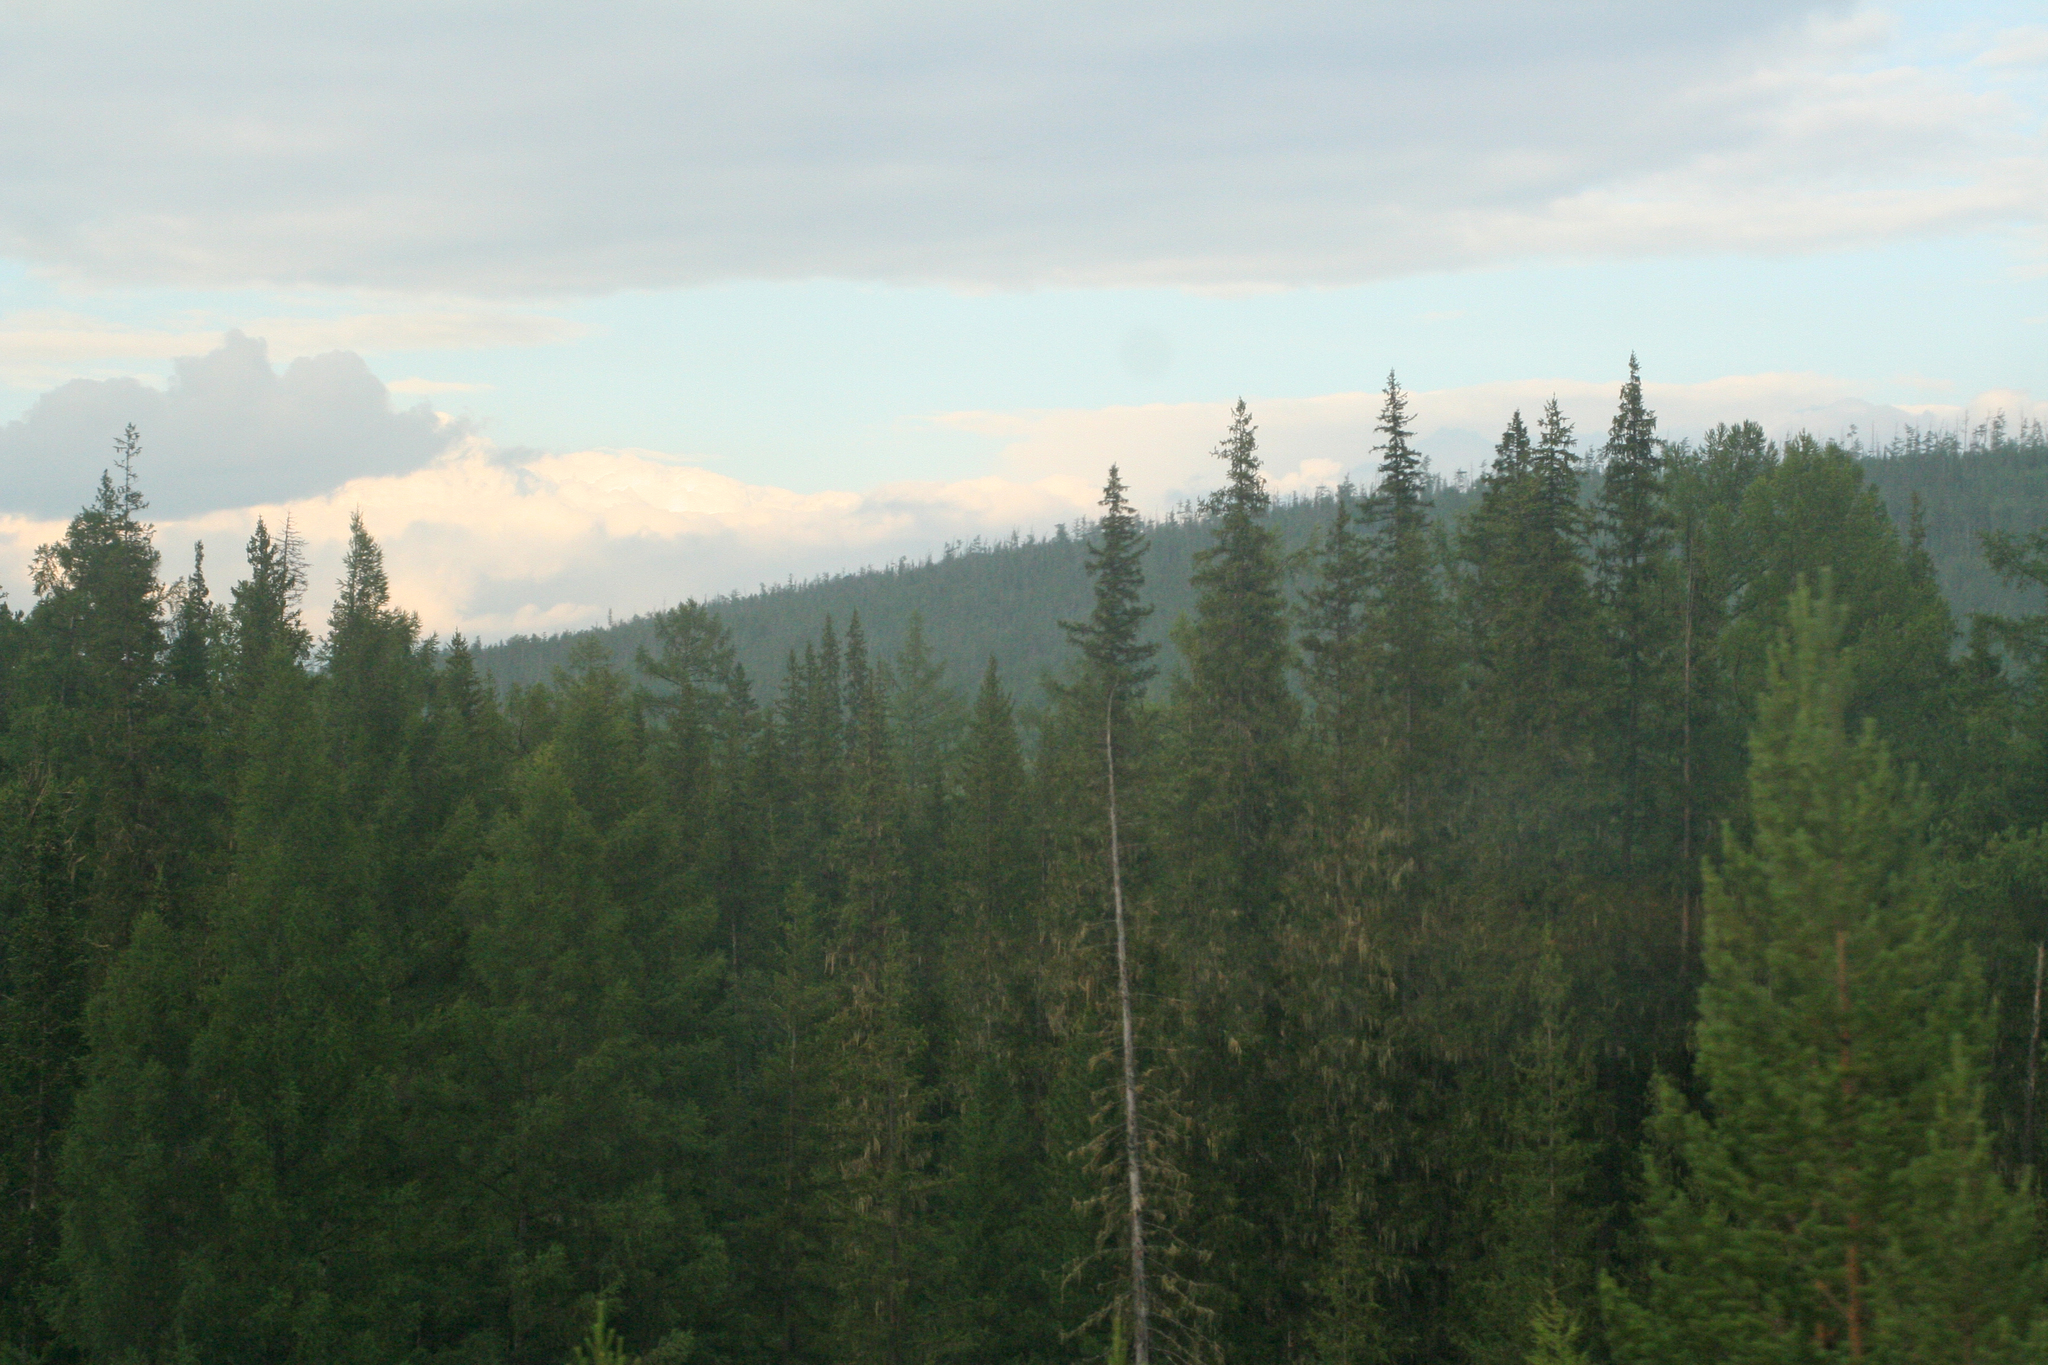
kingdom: Plantae
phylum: Tracheophyta
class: Pinopsida
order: Pinales
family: Pinaceae
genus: Abies
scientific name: Abies sibirica
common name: Siberian fir
